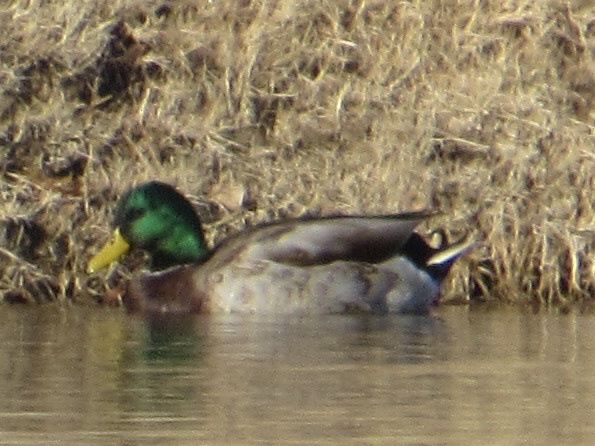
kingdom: Animalia
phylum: Chordata
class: Aves
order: Anseriformes
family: Anatidae
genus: Anas
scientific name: Anas platyrhynchos
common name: Mallard
